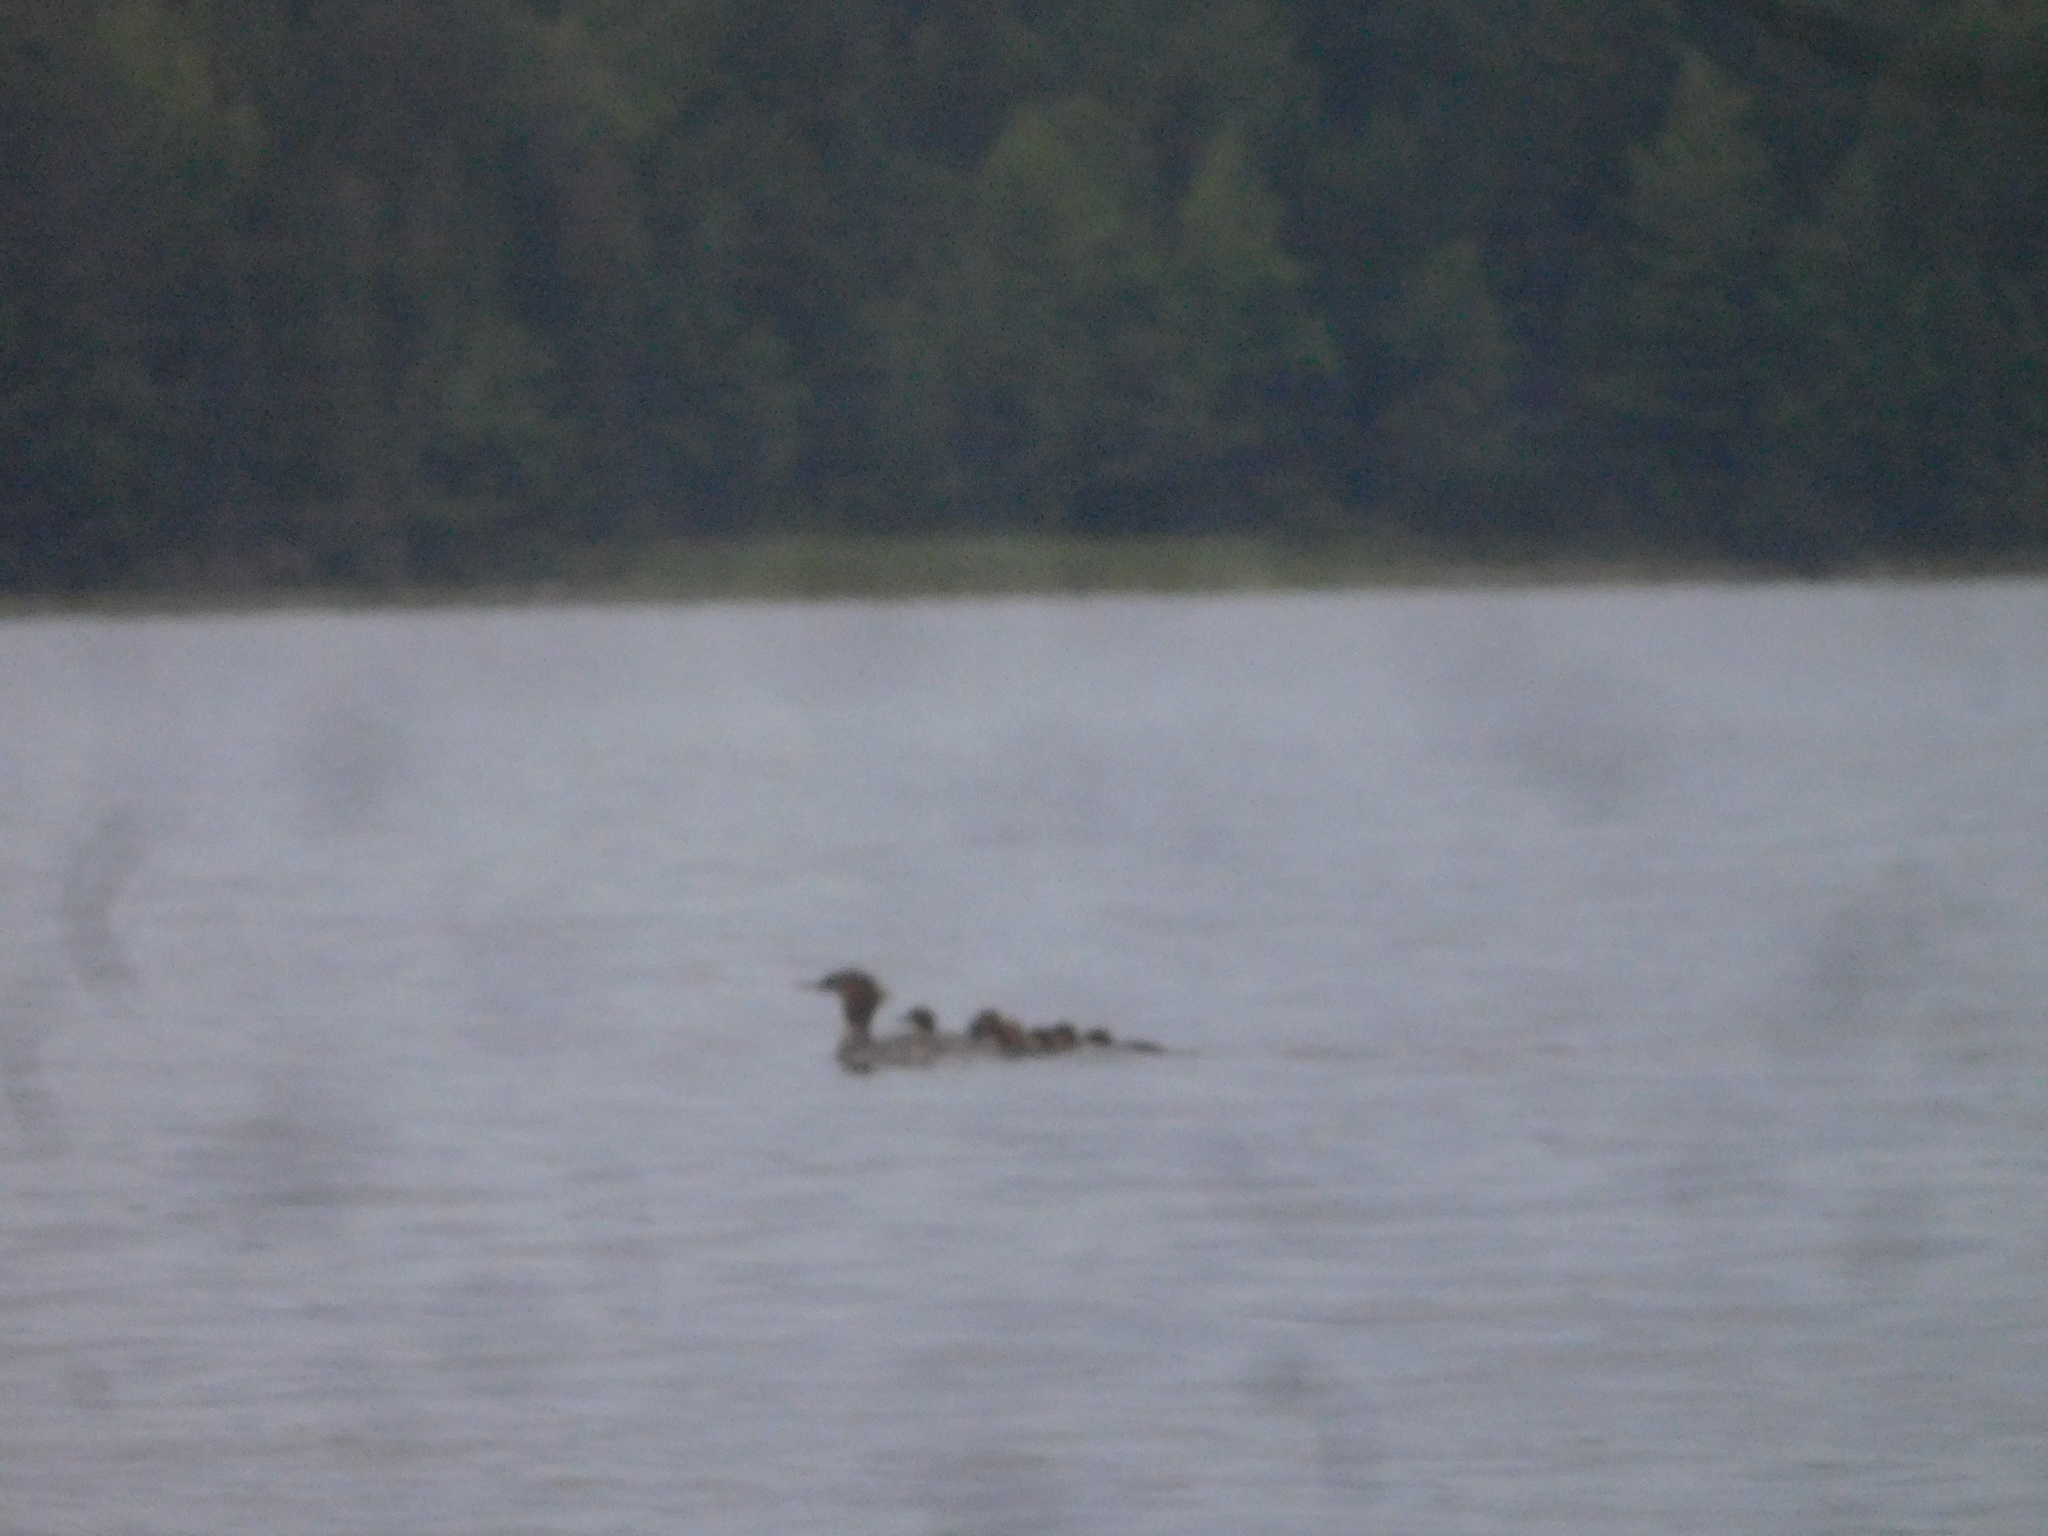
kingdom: Animalia
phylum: Chordata
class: Aves
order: Anseriformes
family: Anatidae
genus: Mergus
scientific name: Mergus merganser
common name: Common merganser
